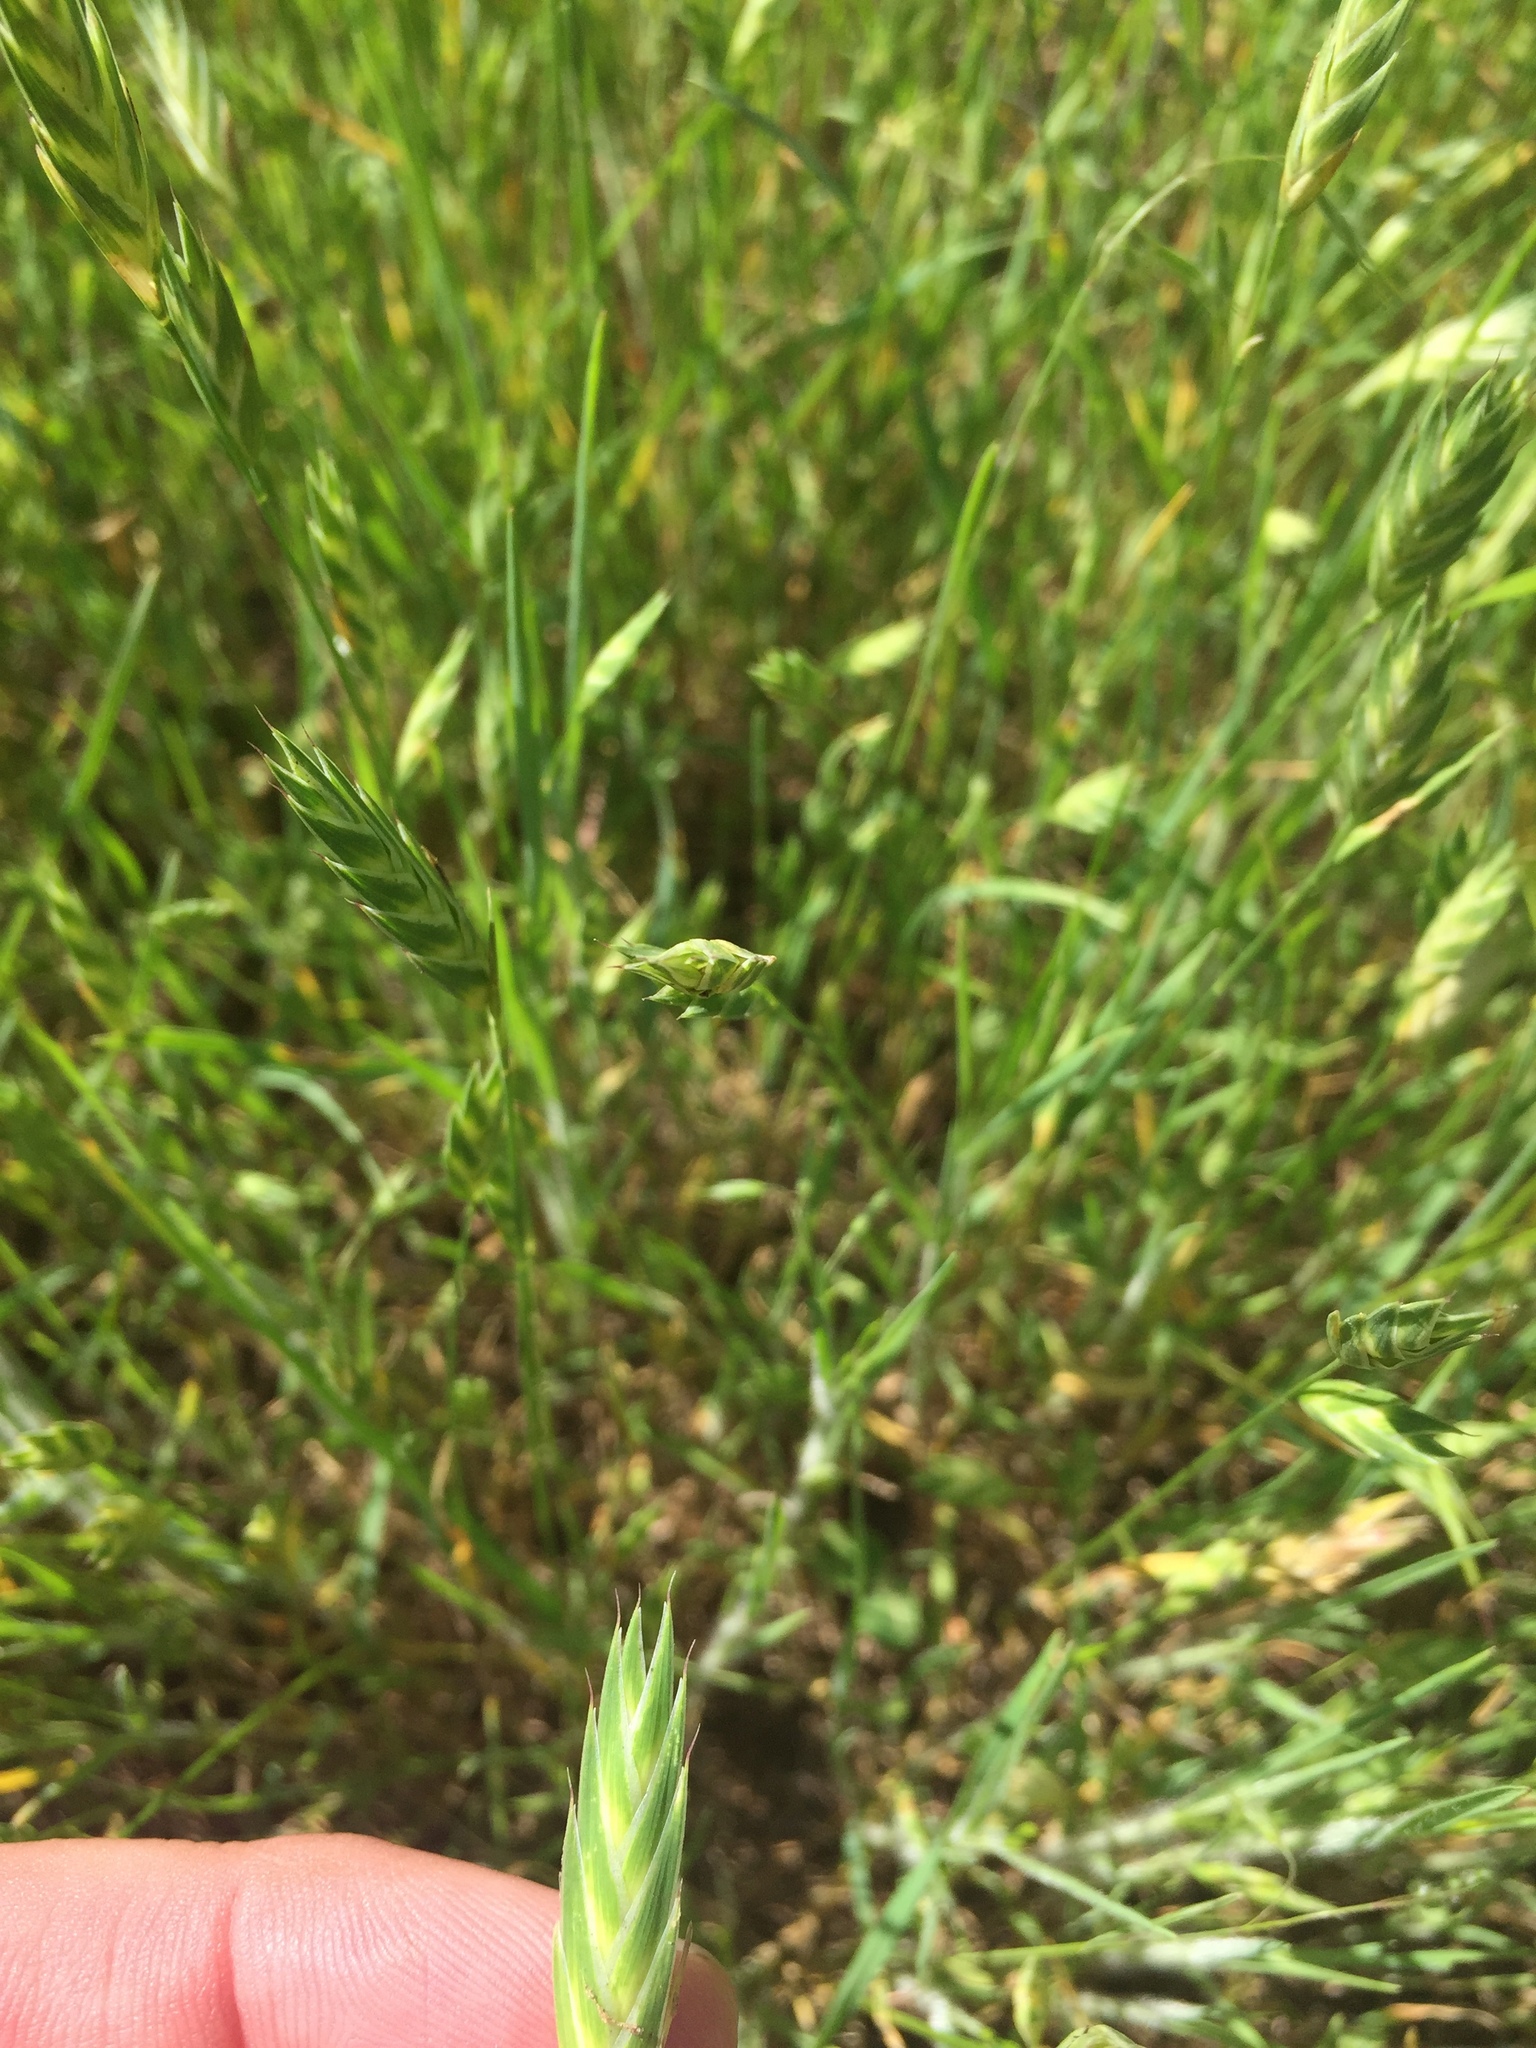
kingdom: Plantae
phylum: Tracheophyta
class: Liliopsida
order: Poales
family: Poaceae
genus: Bromus
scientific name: Bromus catharticus
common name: Rescuegrass
